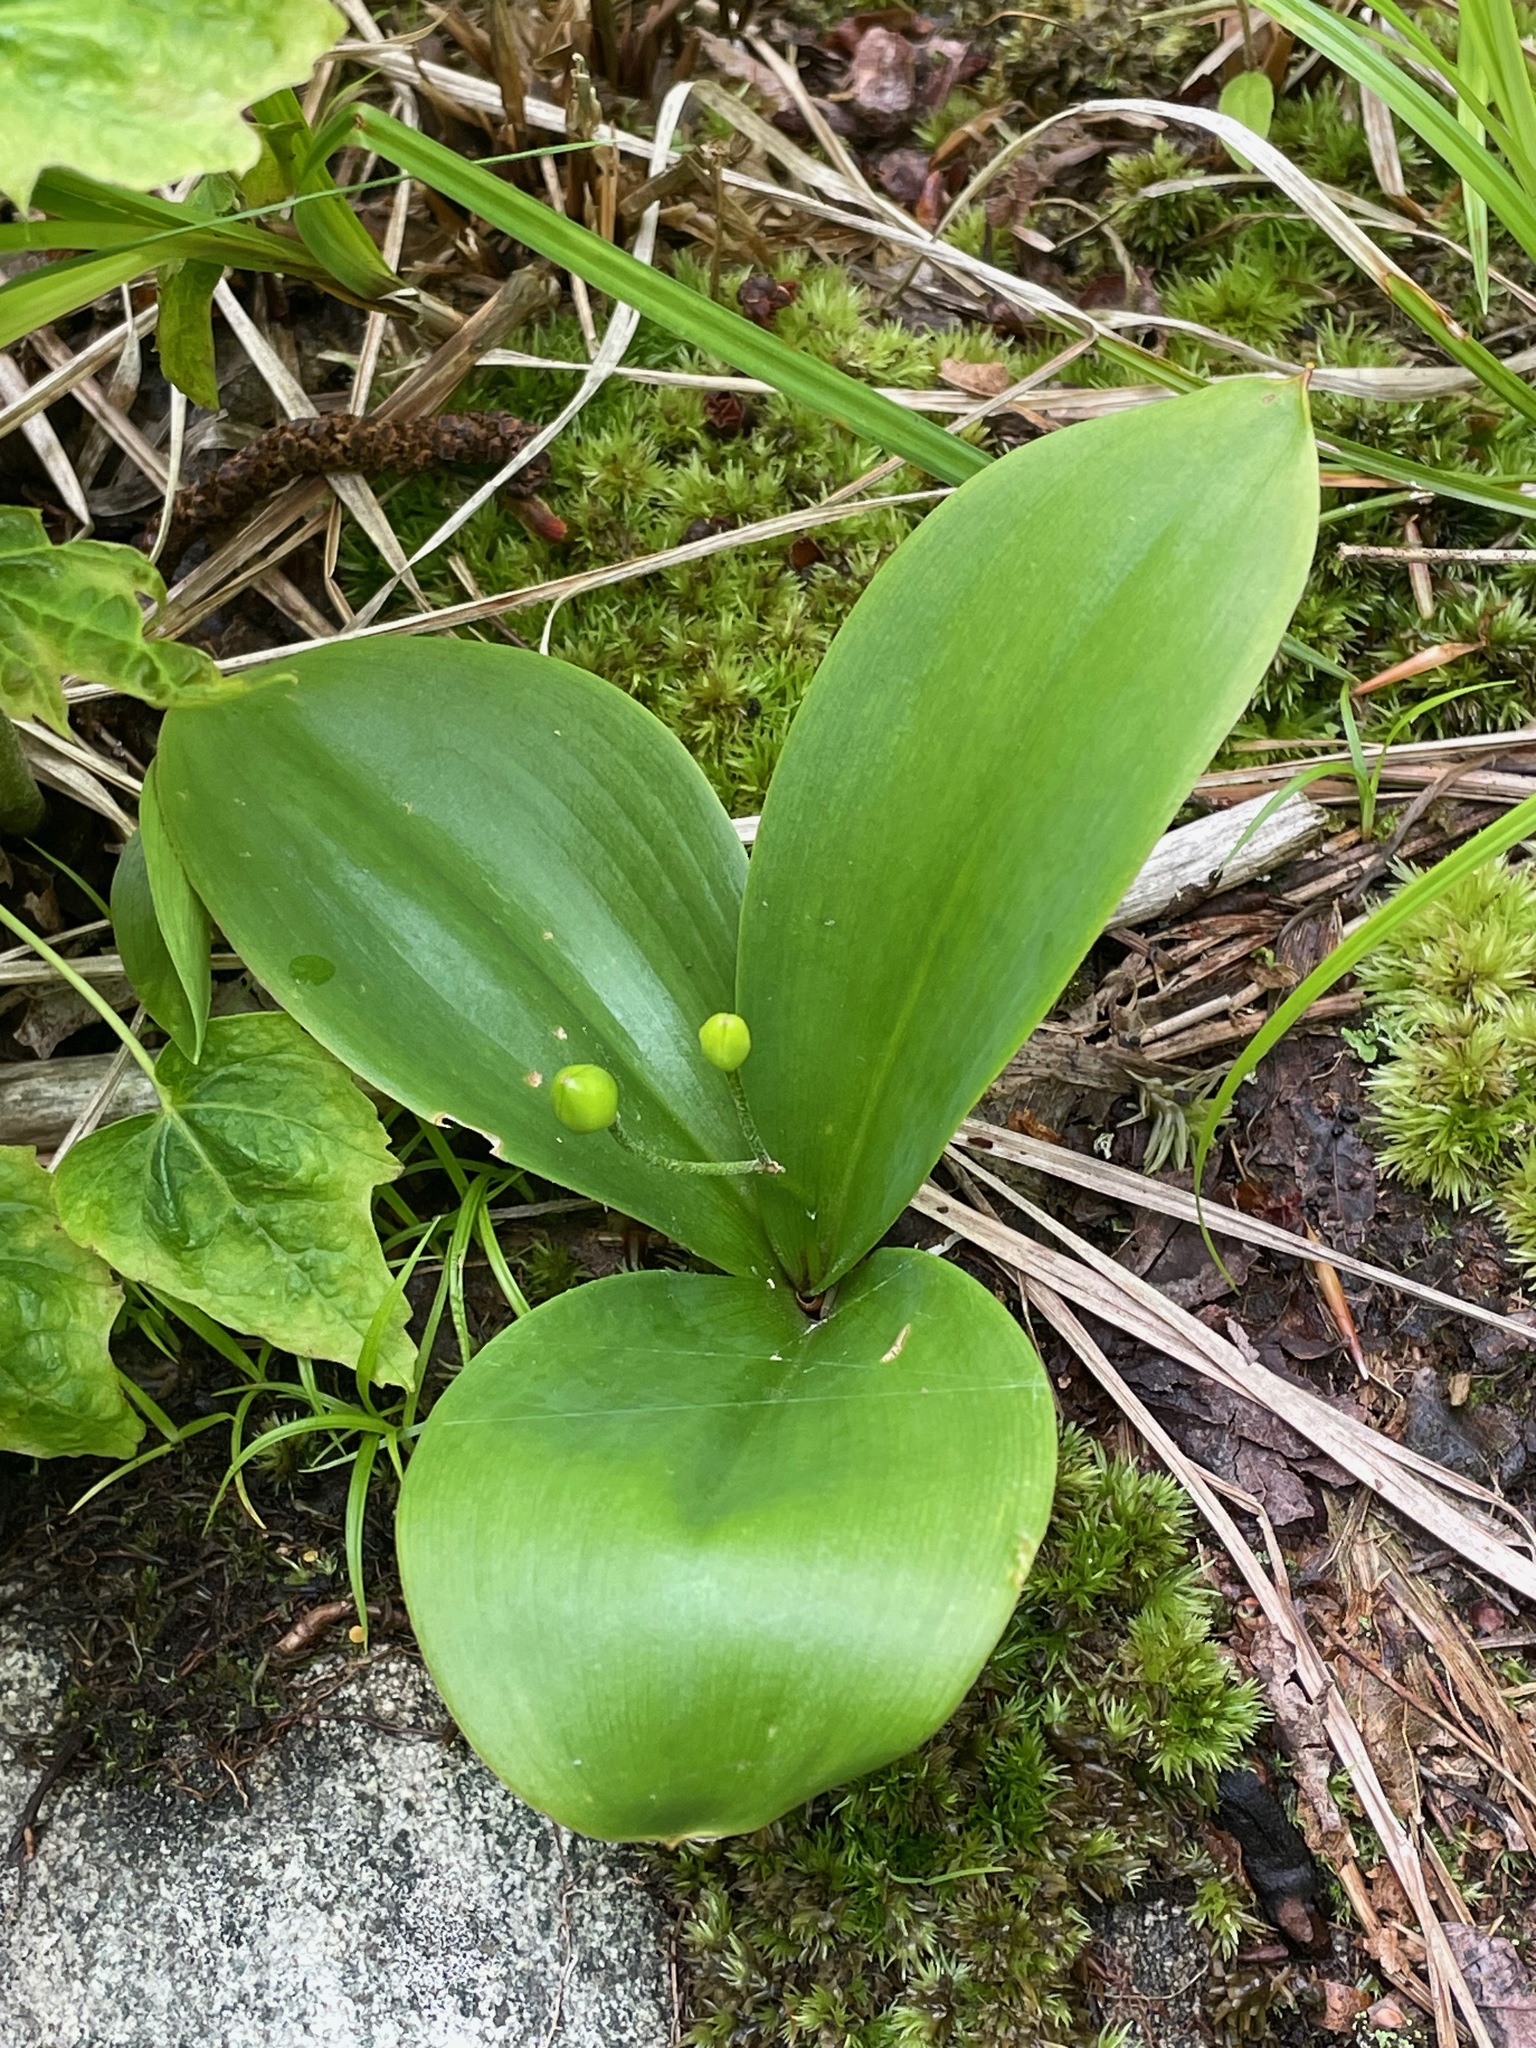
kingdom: Plantae
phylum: Tracheophyta
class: Liliopsida
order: Liliales
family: Liliaceae
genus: Clintonia
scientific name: Clintonia borealis
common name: Yellow clintonia
